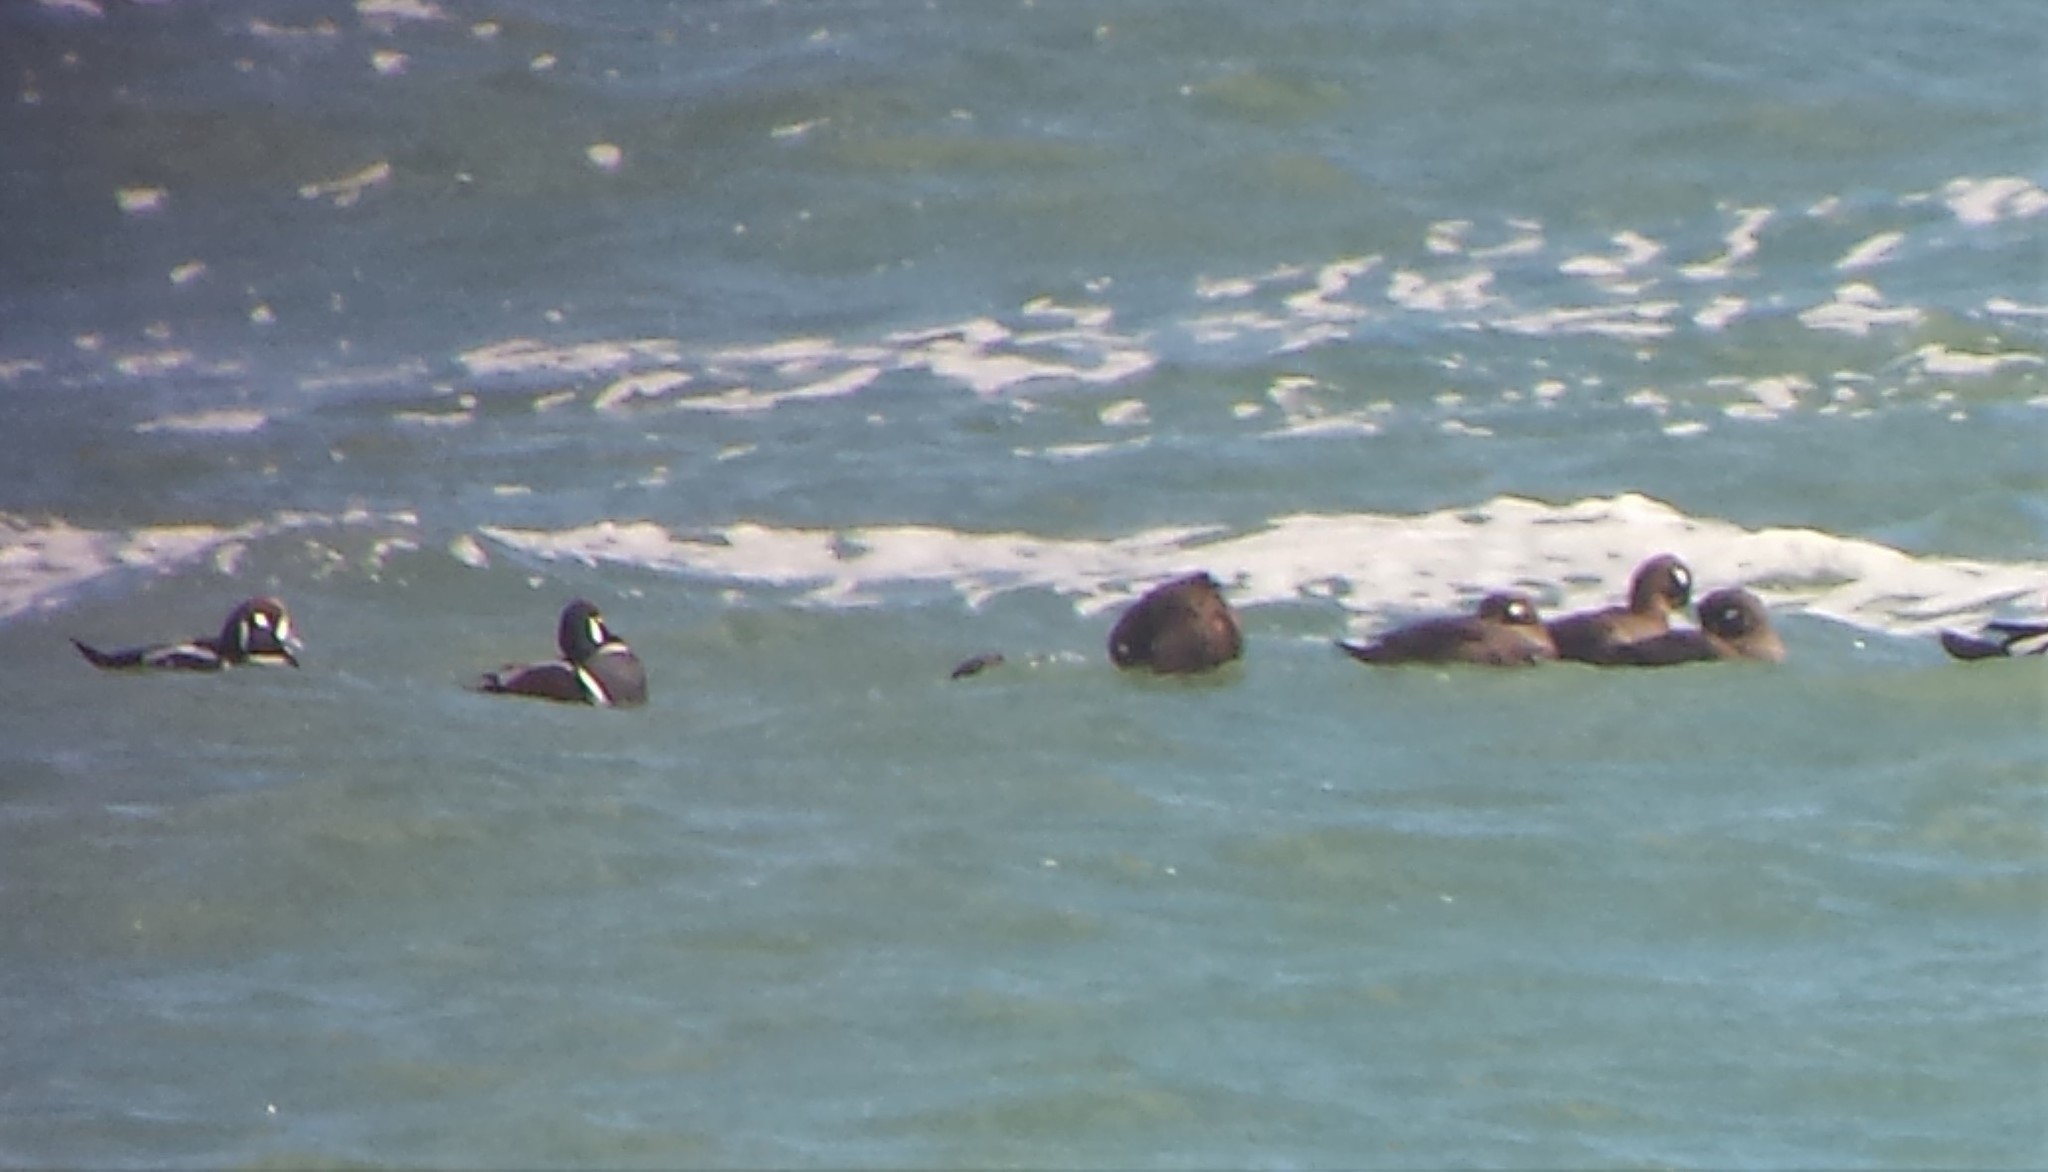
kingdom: Animalia
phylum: Chordata
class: Aves
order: Anseriformes
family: Anatidae
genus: Histrionicus
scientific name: Histrionicus histrionicus
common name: Harlequin duck
